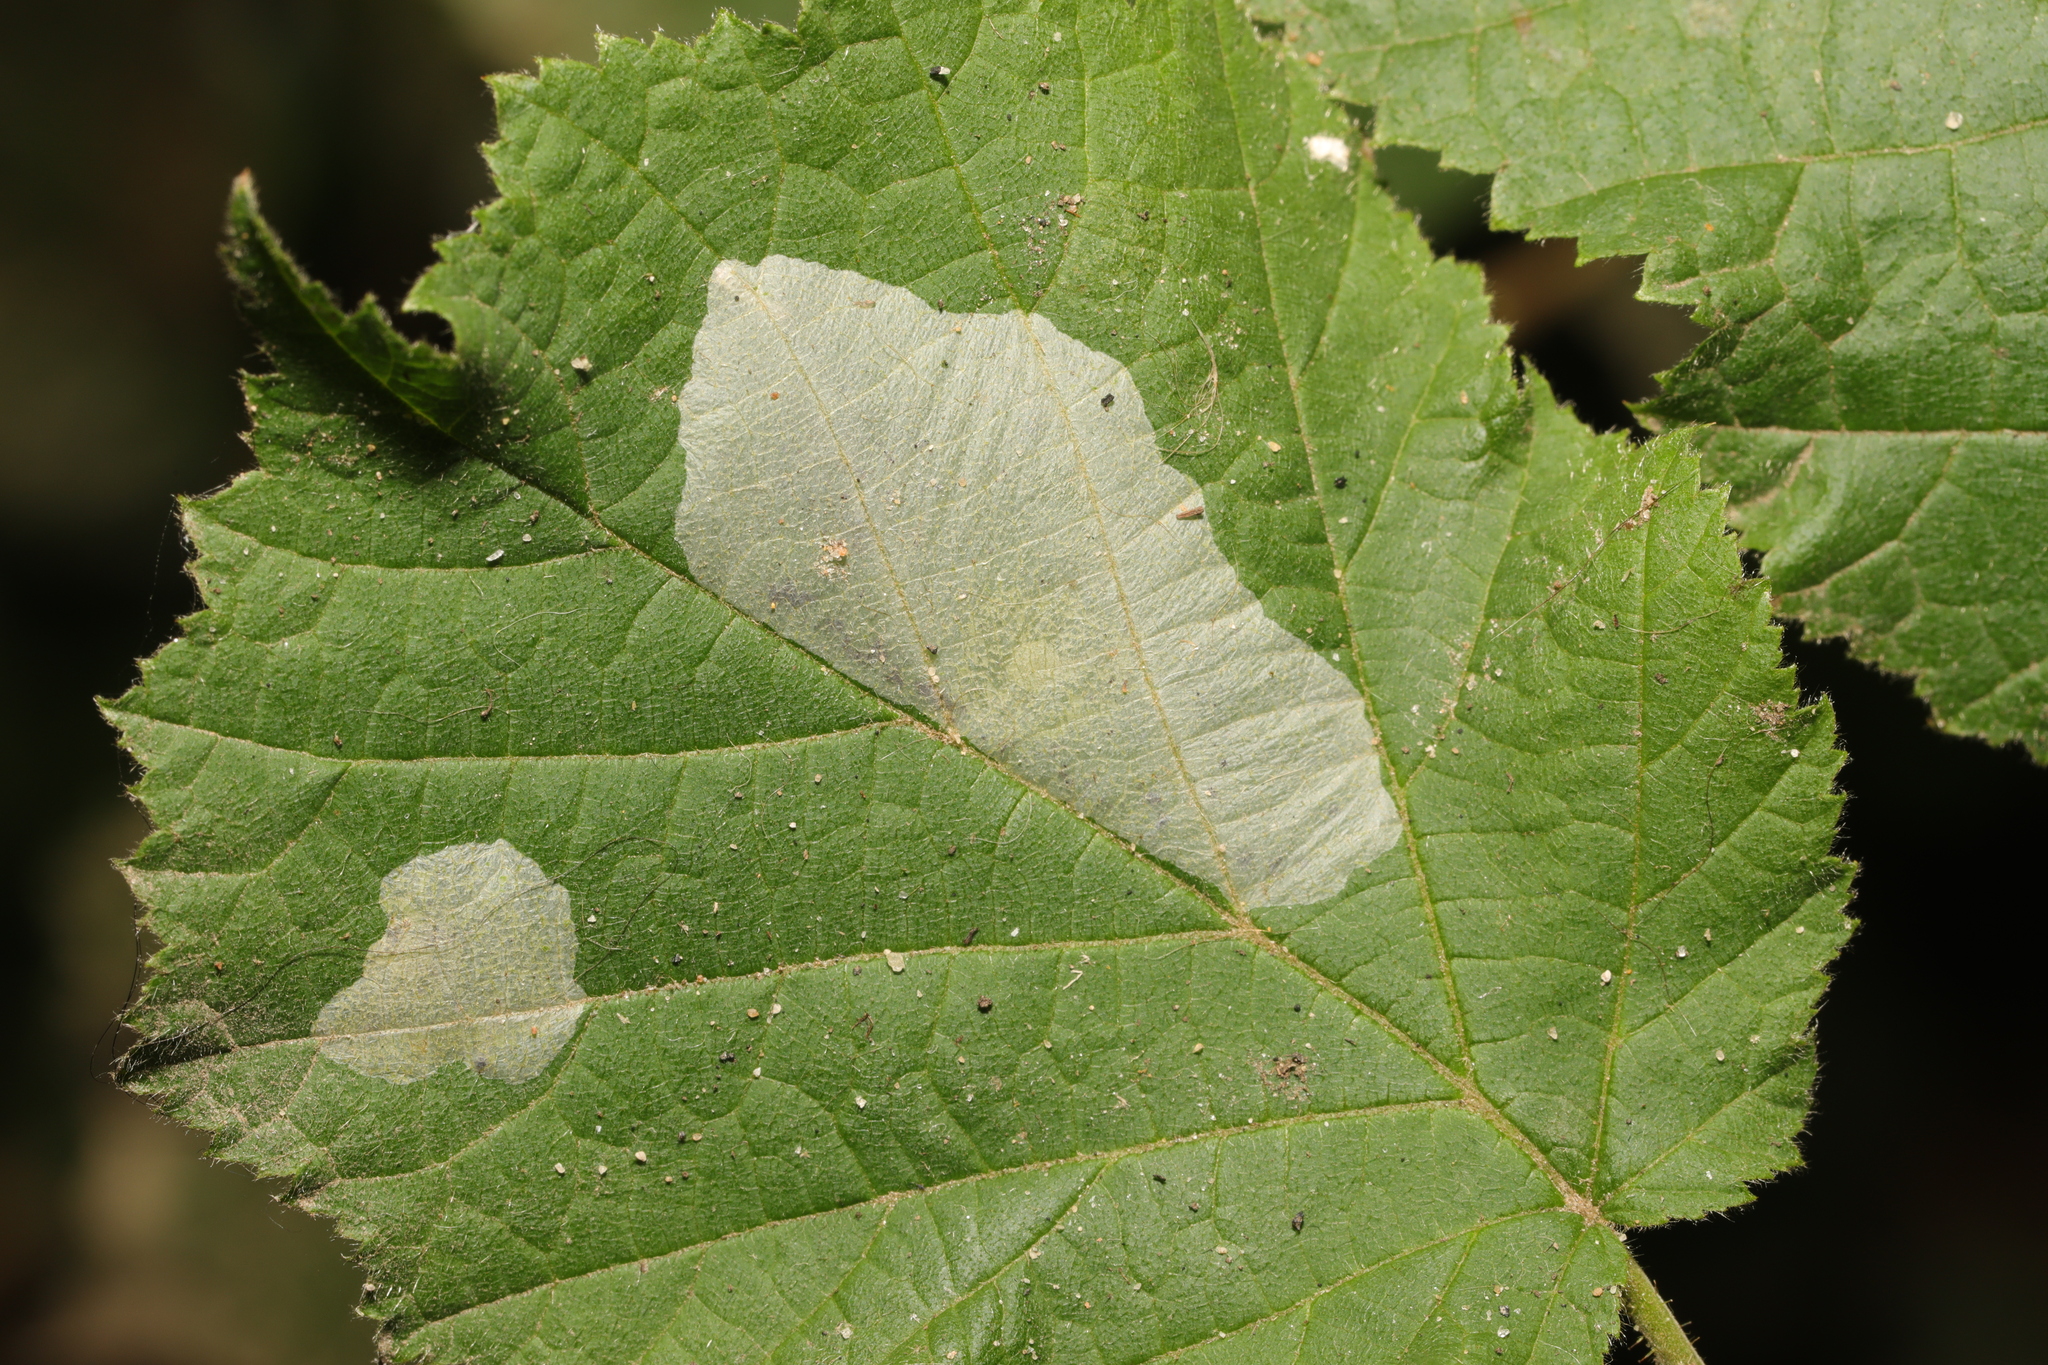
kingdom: Animalia
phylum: Arthropoda
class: Insecta
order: Lepidoptera
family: Gracillariidae
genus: Phyllonorycter
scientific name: Phyllonorycter coryli
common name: Nut-leaf blister moth
